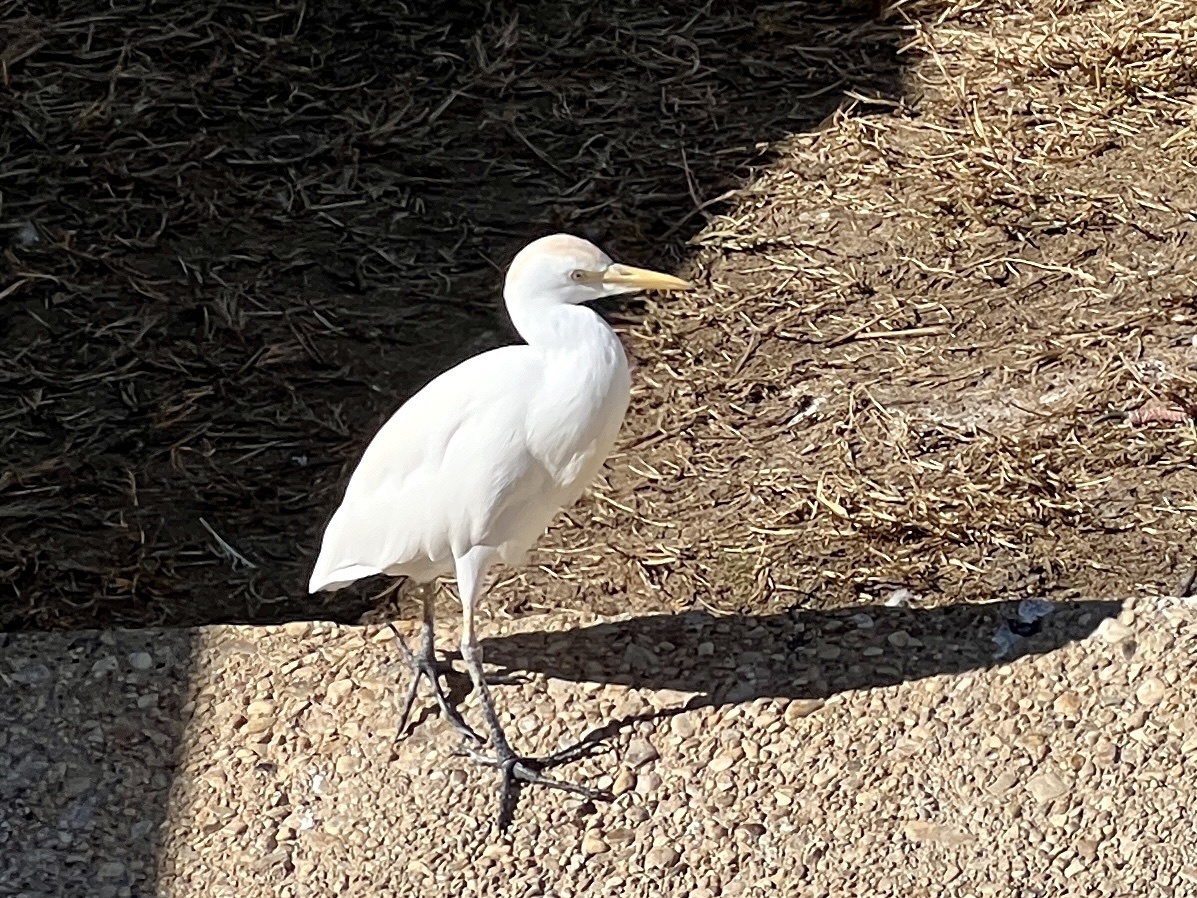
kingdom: Animalia
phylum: Chordata
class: Aves
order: Pelecaniformes
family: Ardeidae
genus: Bubulcus
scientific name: Bubulcus ibis
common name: Cattle egret
